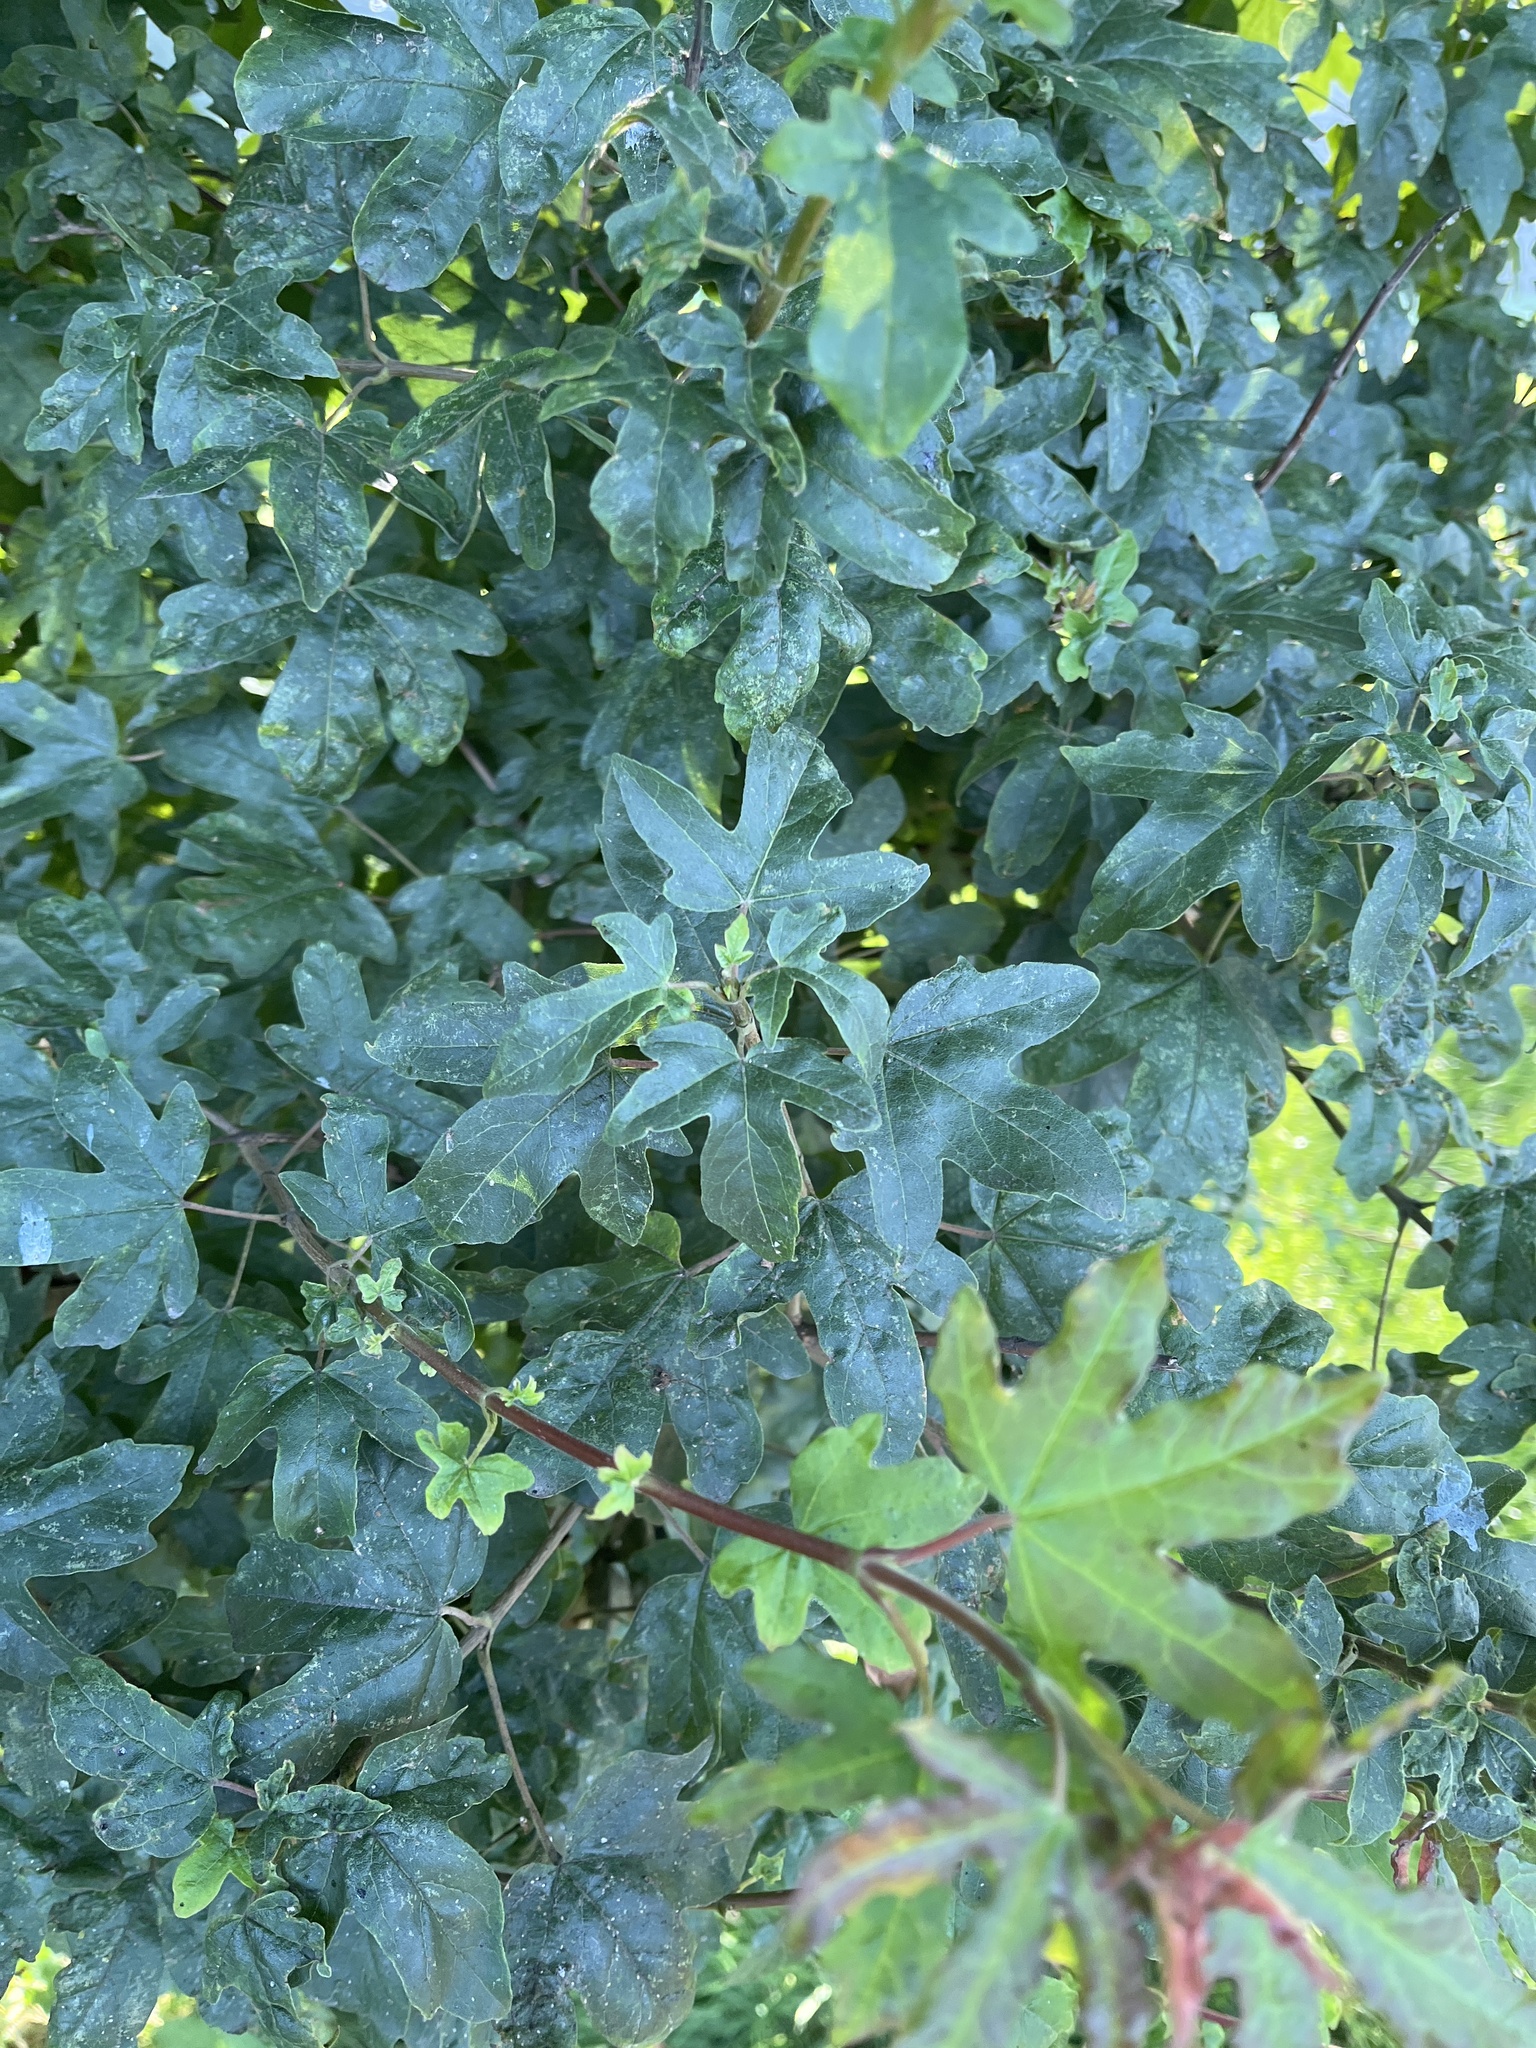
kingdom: Plantae
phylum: Tracheophyta
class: Magnoliopsida
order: Sapindales
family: Sapindaceae
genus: Acer
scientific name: Acer campestre
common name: Field maple
